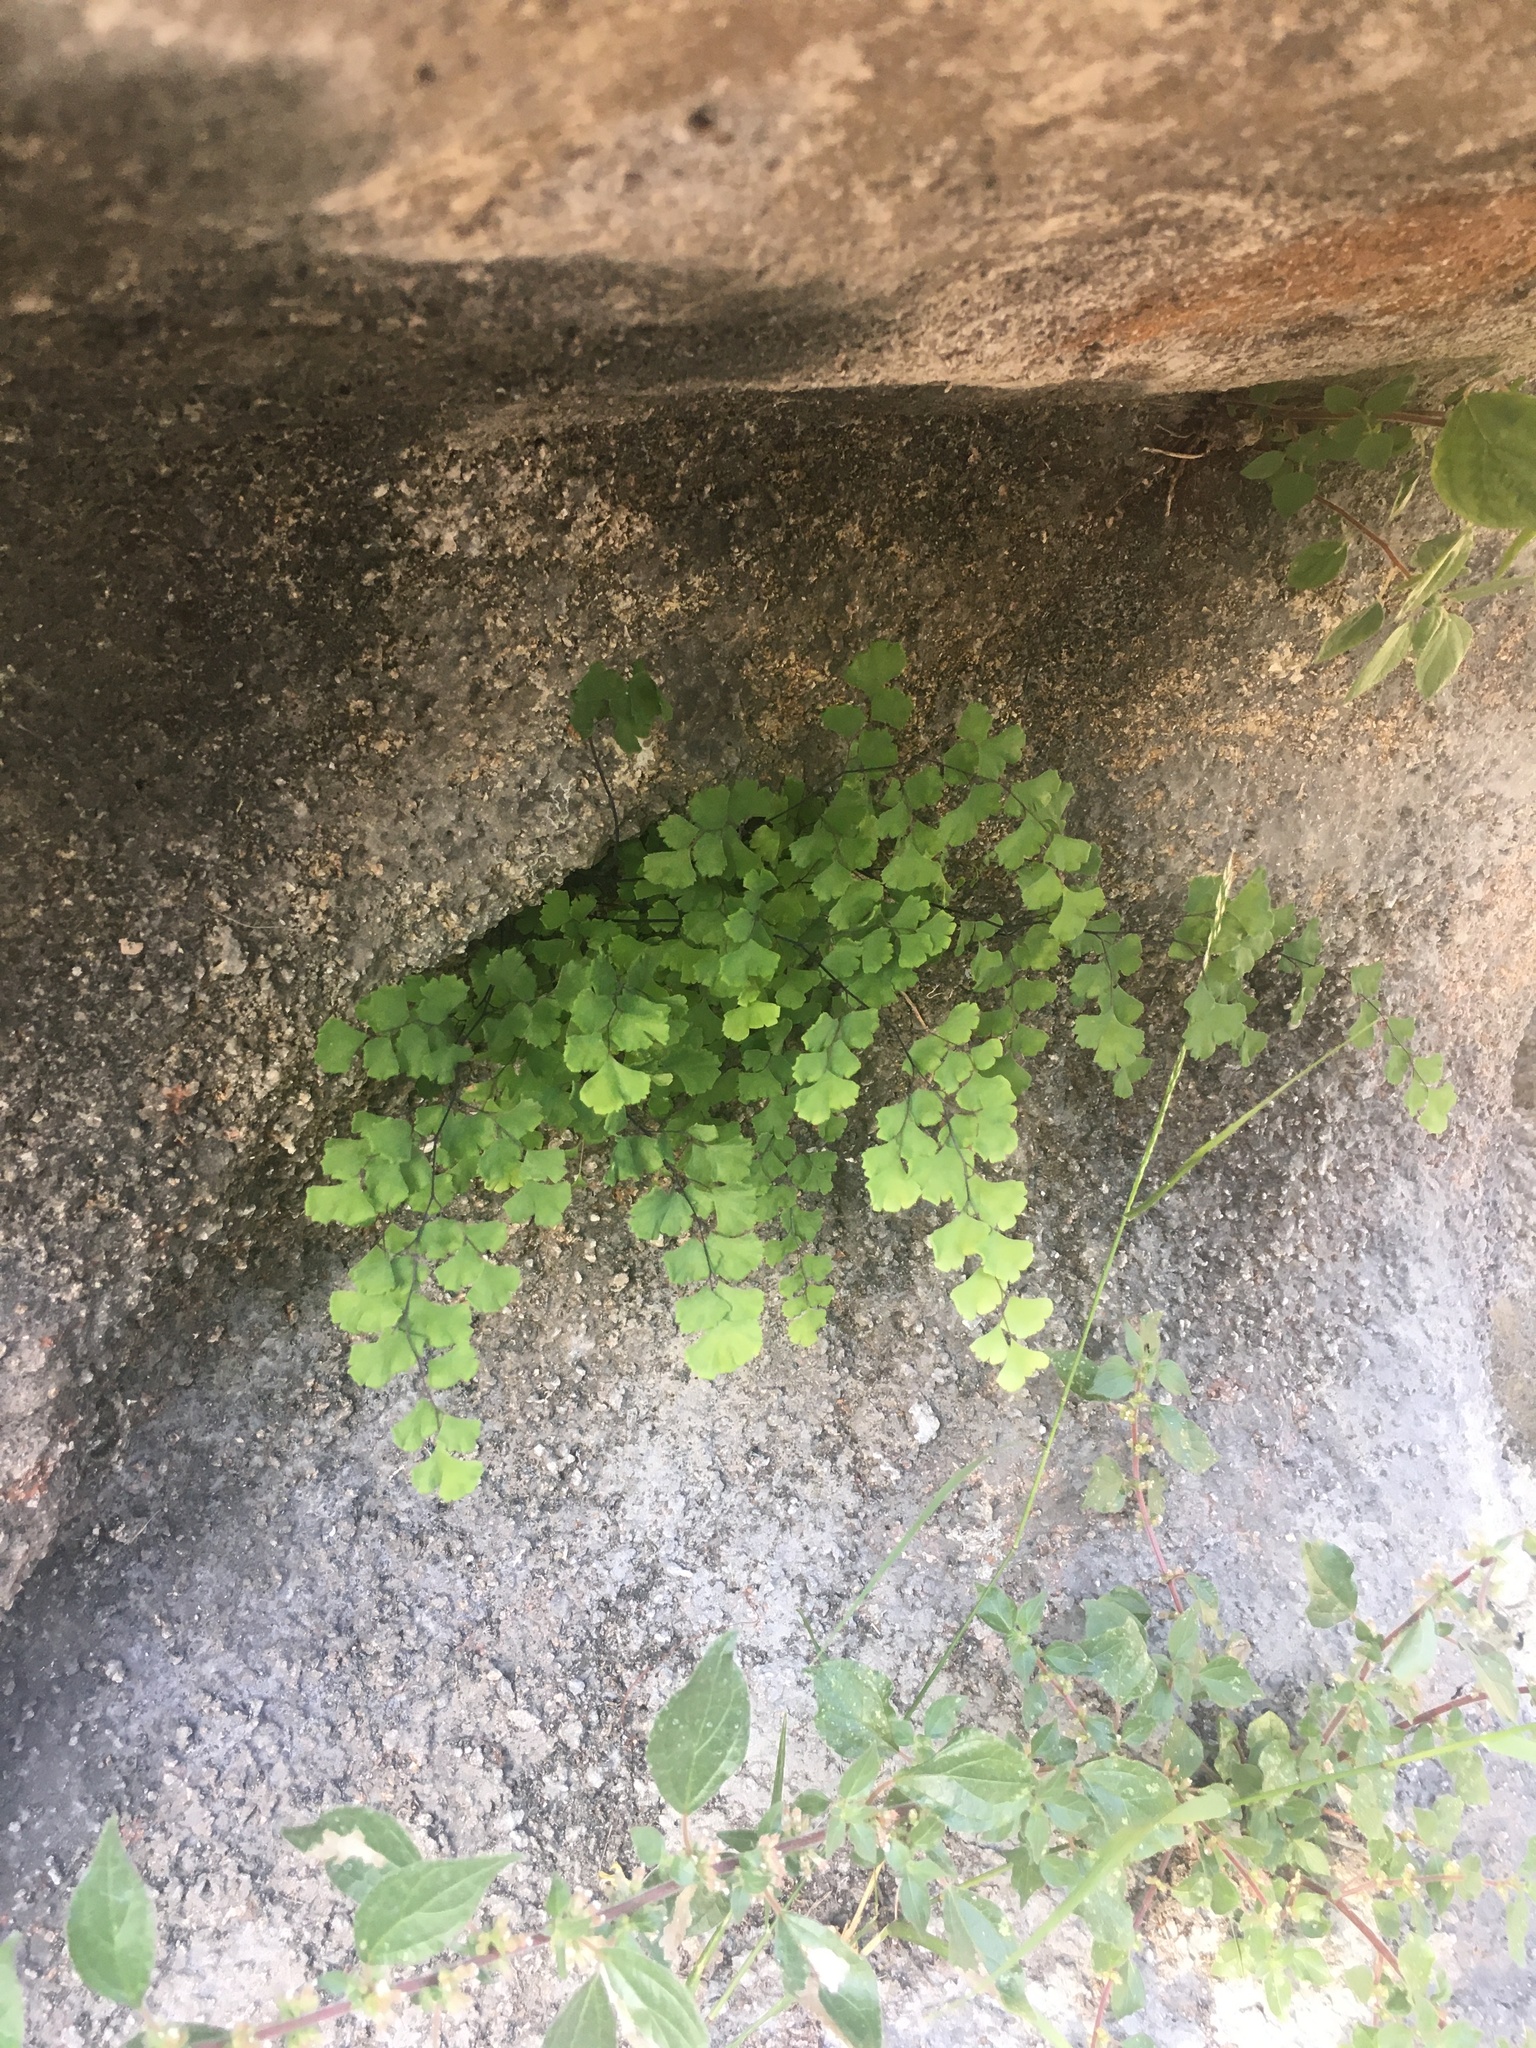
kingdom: Plantae
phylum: Tracheophyta
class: Polypodiopsida
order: Polypodiales
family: Pteridaceae
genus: Adiantum
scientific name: Adiantum capillus-veneris
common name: Maidenhair fern
